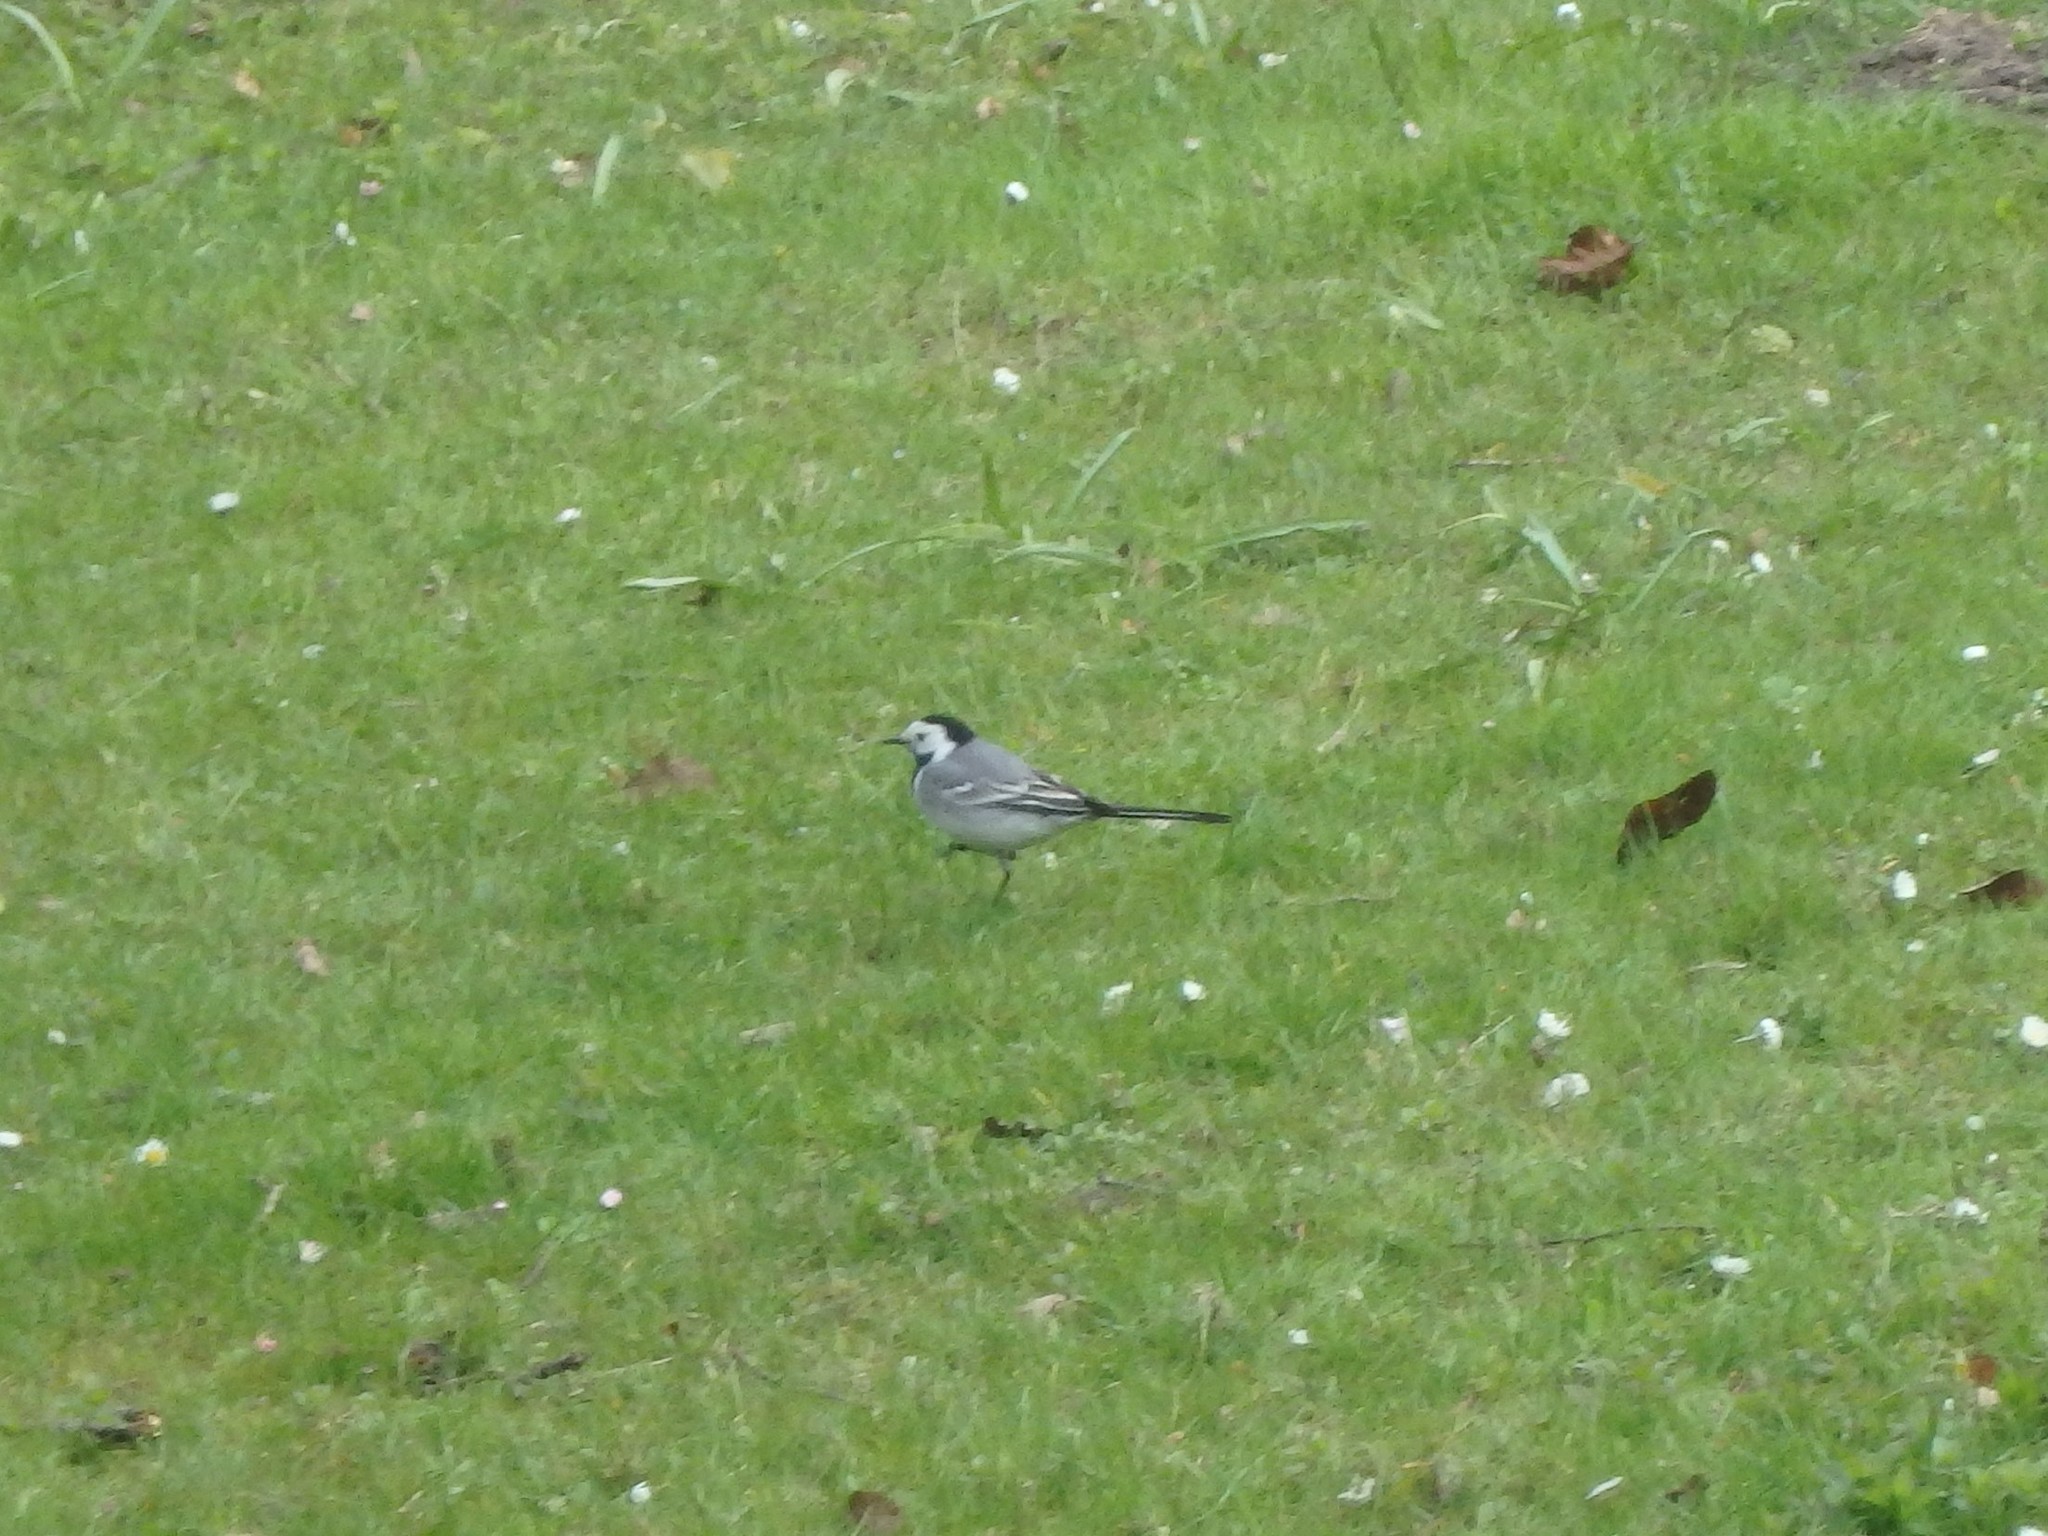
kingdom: Animalia
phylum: Chordata
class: Aves
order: Passeriformes
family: Motacillidae
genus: Motacilla
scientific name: Motacilla alba
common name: White wagtail
